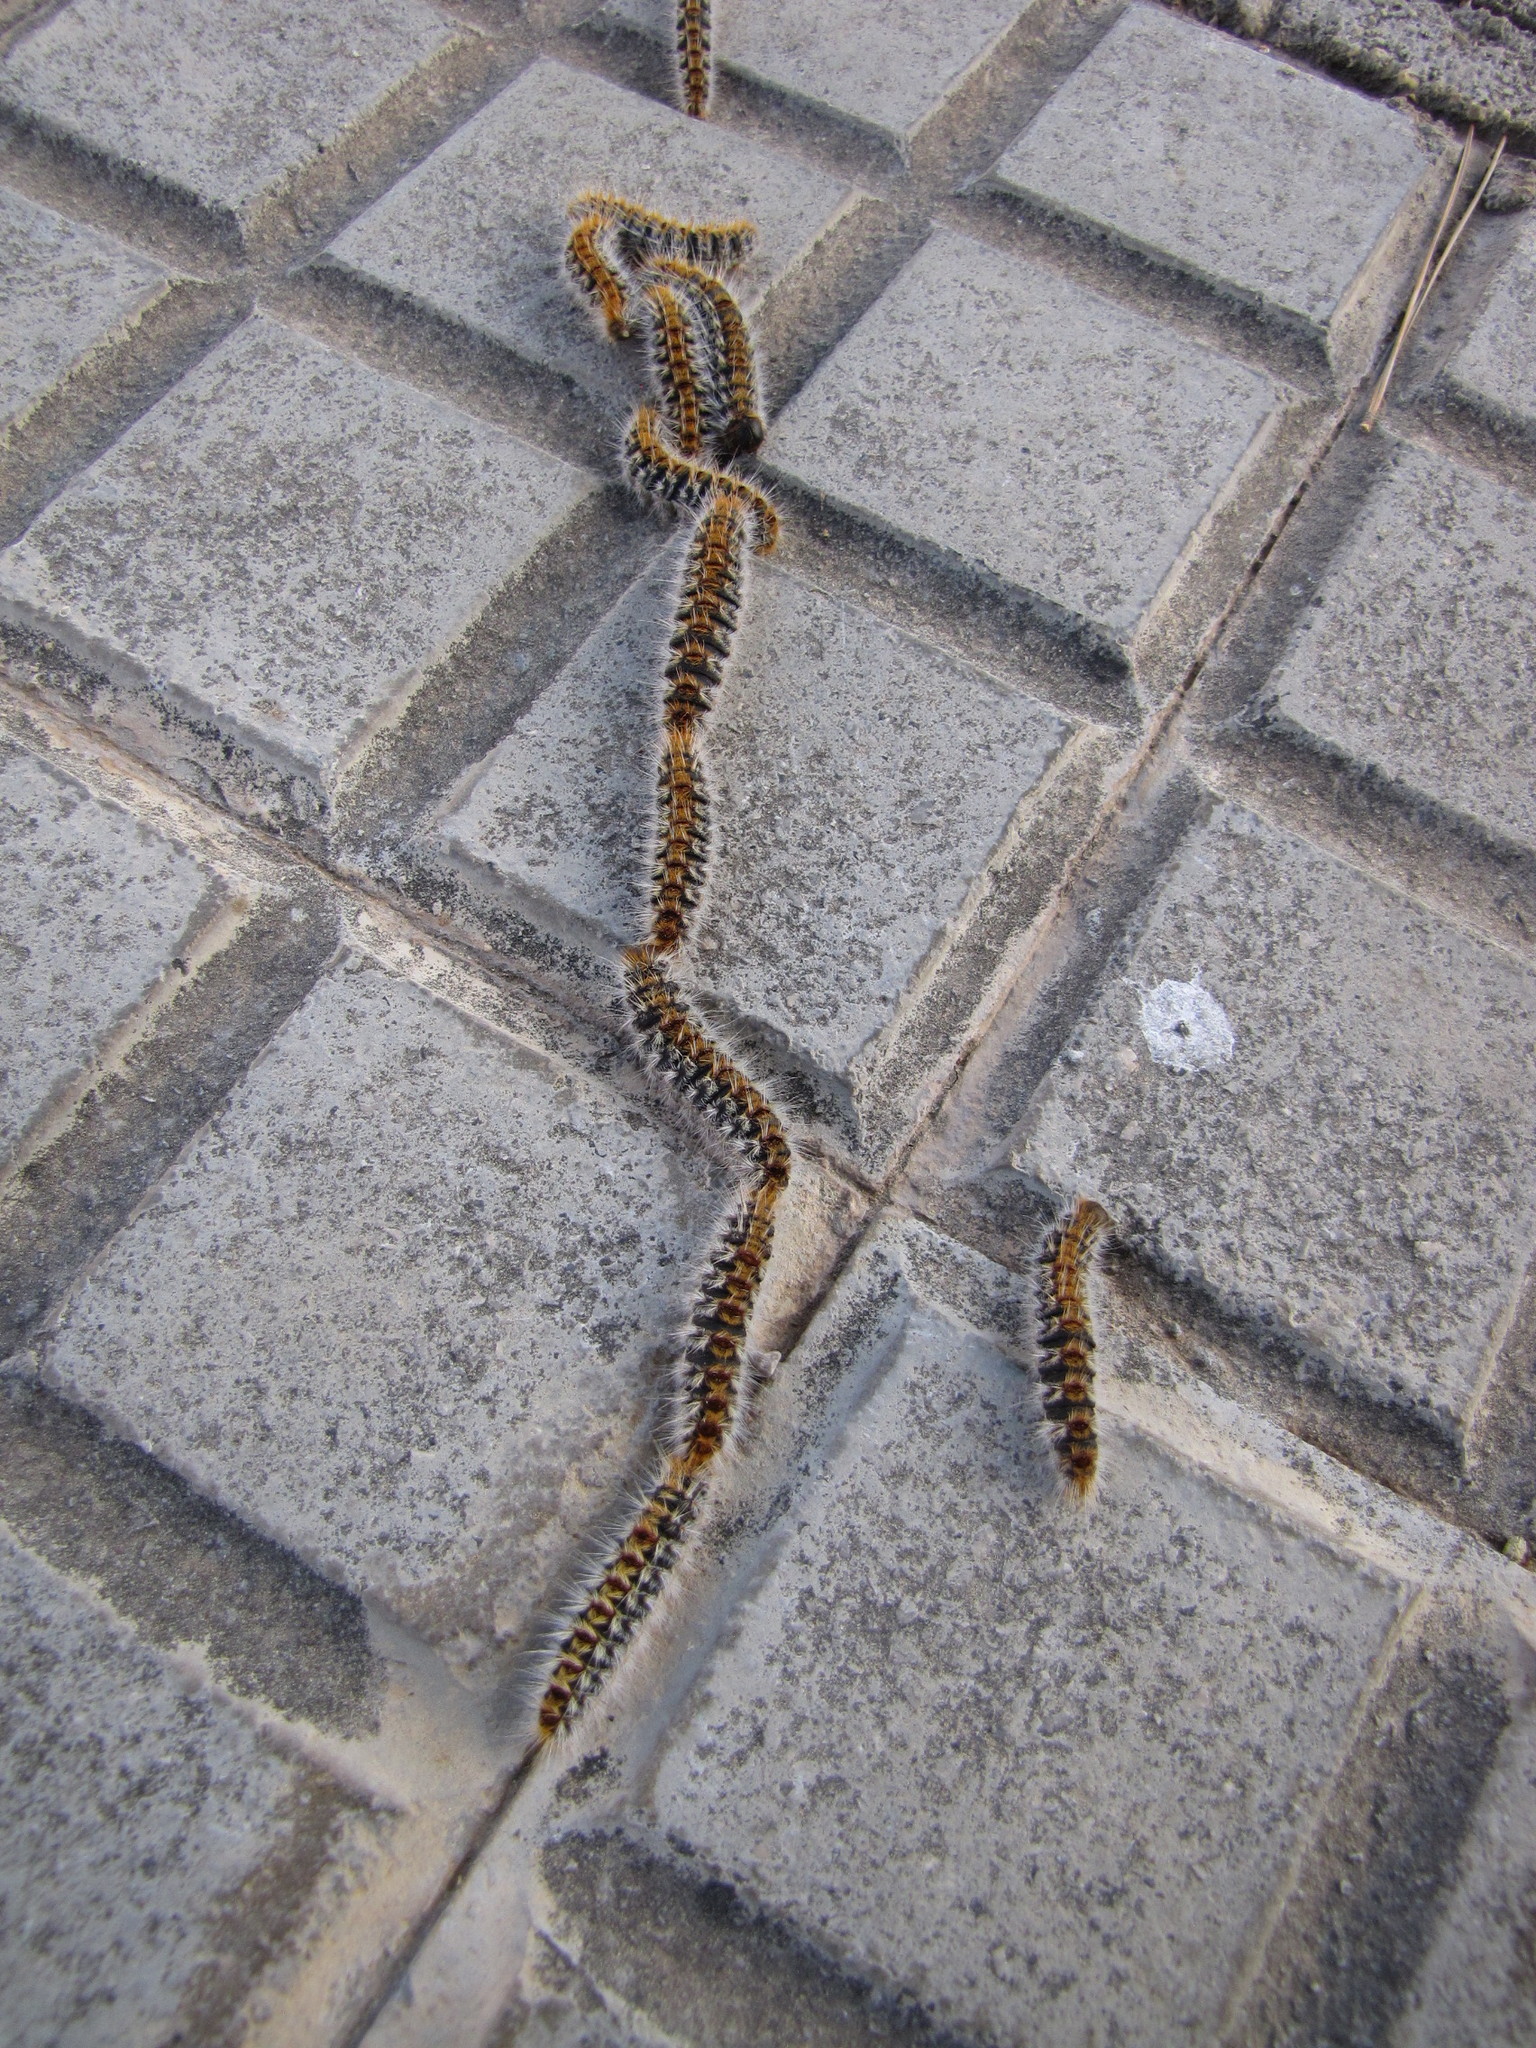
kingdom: Animalia
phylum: Arthropoda
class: Insecta
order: Lepidoptera
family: Notodontidae
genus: Thaumetopoea
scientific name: Thaumetopoea pityocampa
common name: Pine processionary
